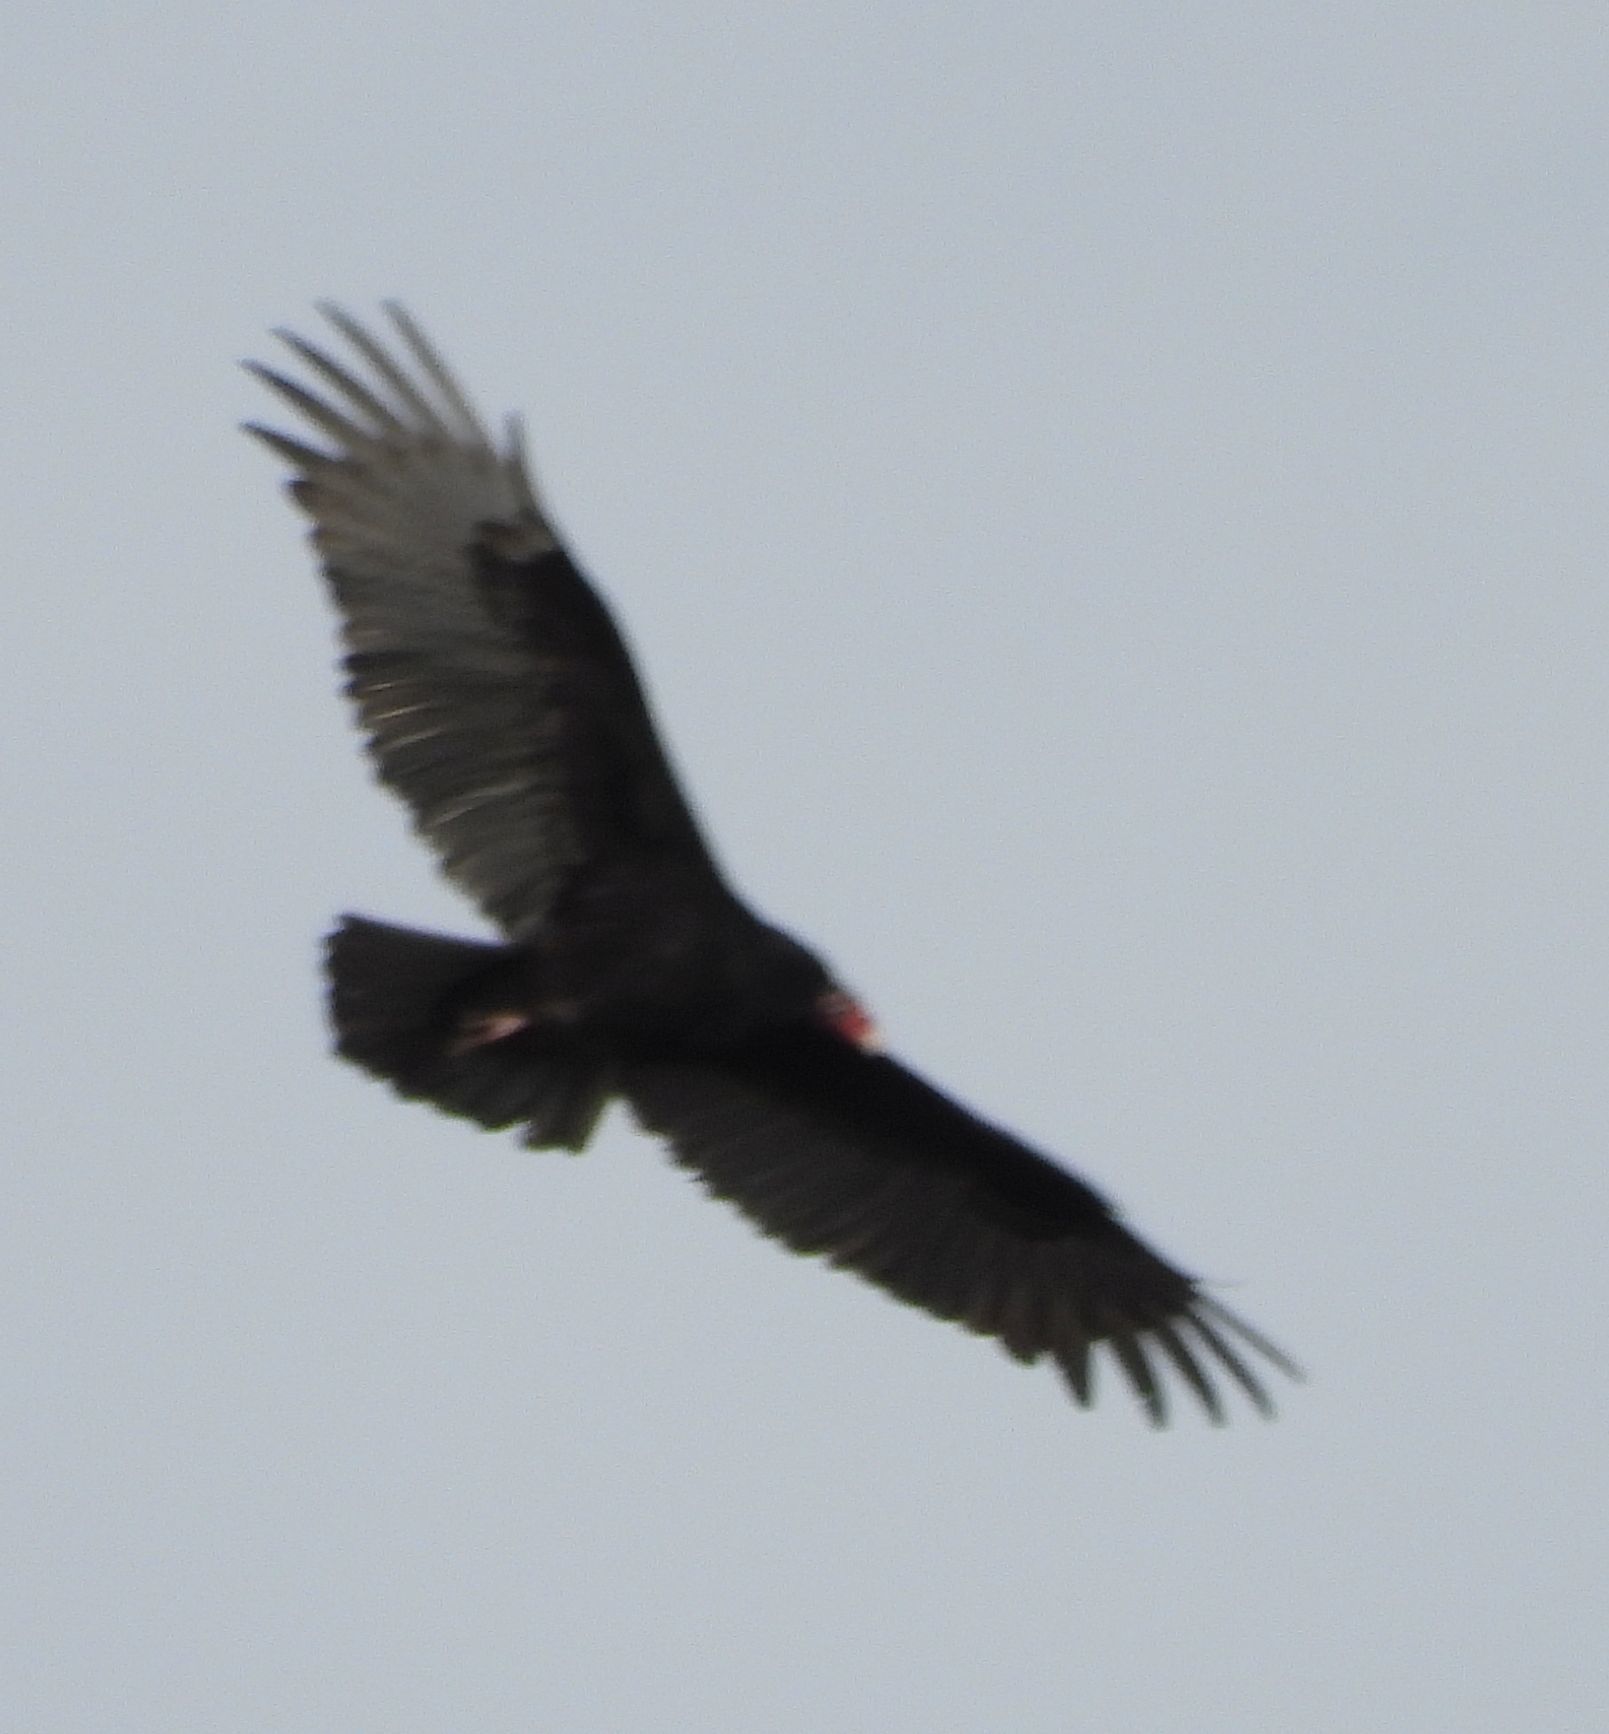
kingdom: Animalia
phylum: Chordata
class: Aves
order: Accipitriformes
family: Cathartidae
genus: Cathartes
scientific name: Cathartes aura
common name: Turkey vulture
